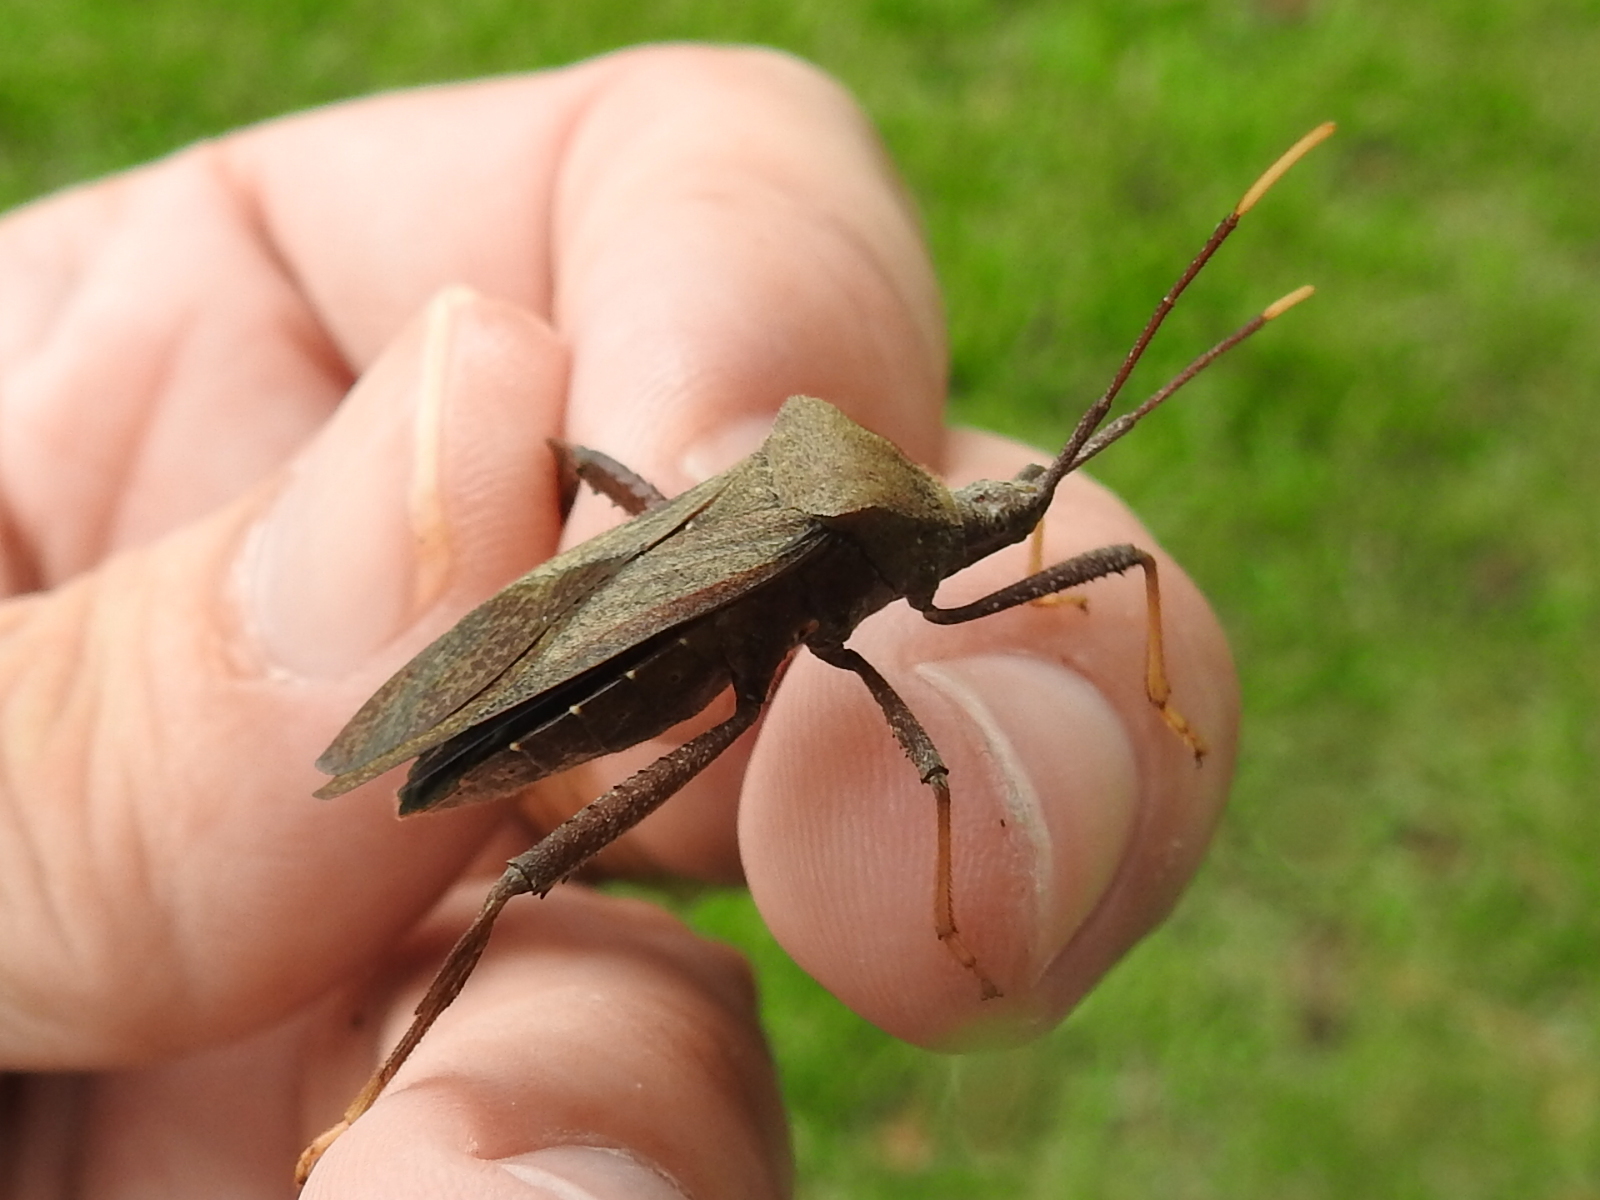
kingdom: Animalia
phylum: Arthropoda
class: Insecta
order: Hemiptera
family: Coreidae
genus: Acanthocephala
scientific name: Acanthocephala terminalis
